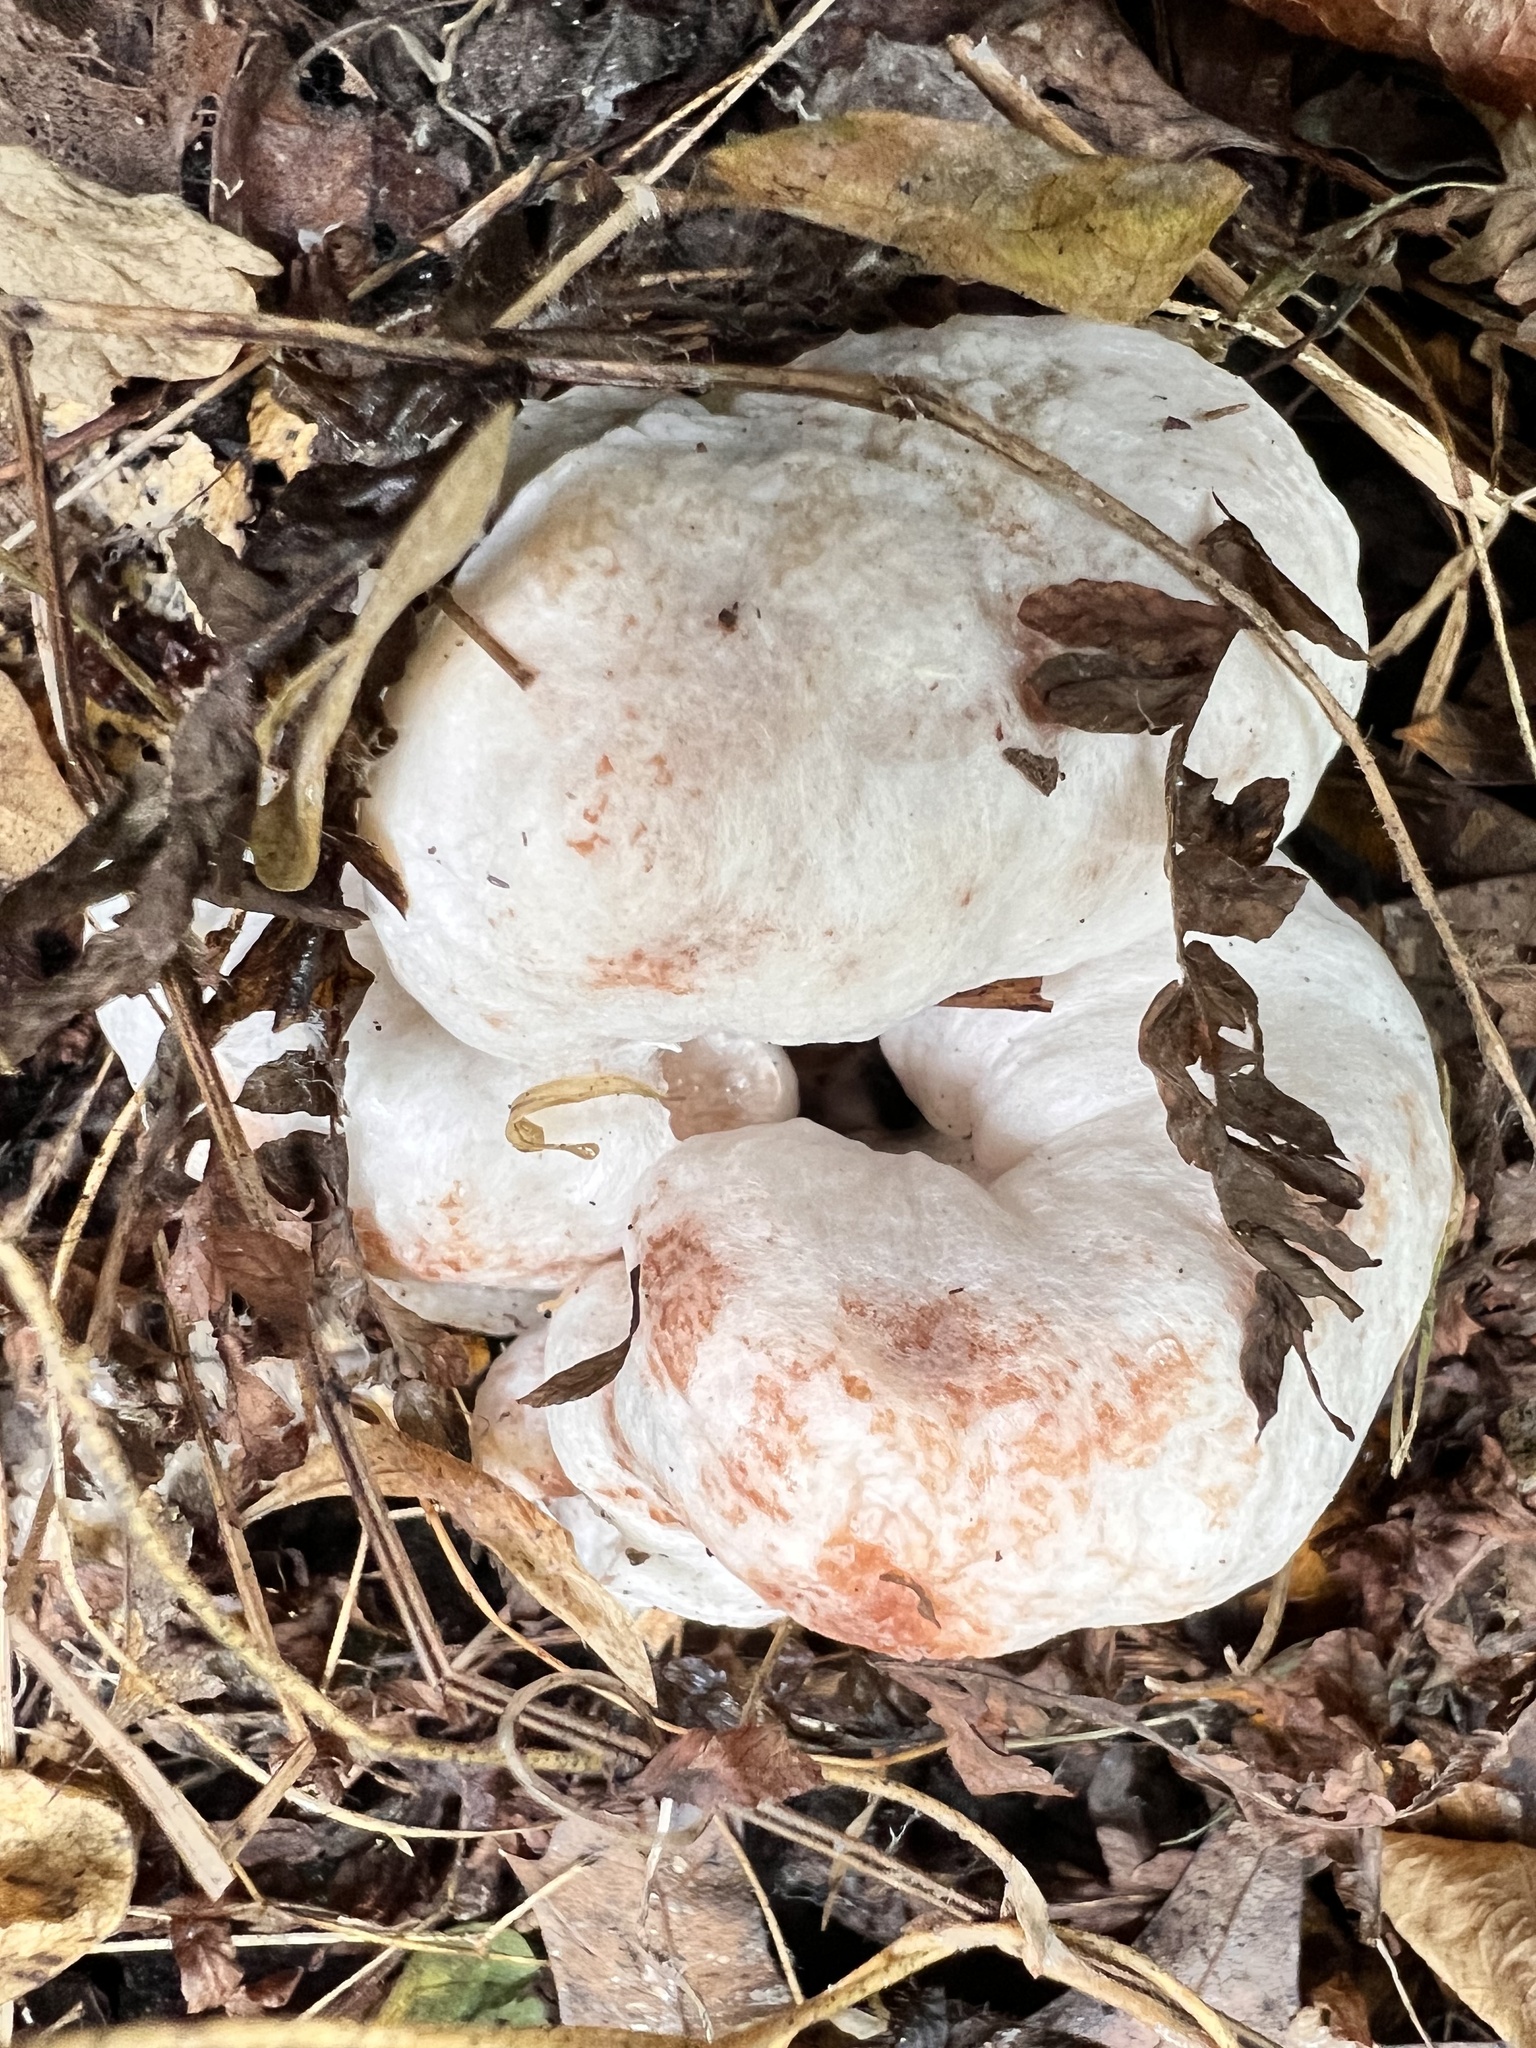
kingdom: Fungi
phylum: Basidiomycota
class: Agaricomycetes
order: Agaricales
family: Entolomataceae
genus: Entoloma
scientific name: Entoloma abortivum
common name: Aborted entoloma
